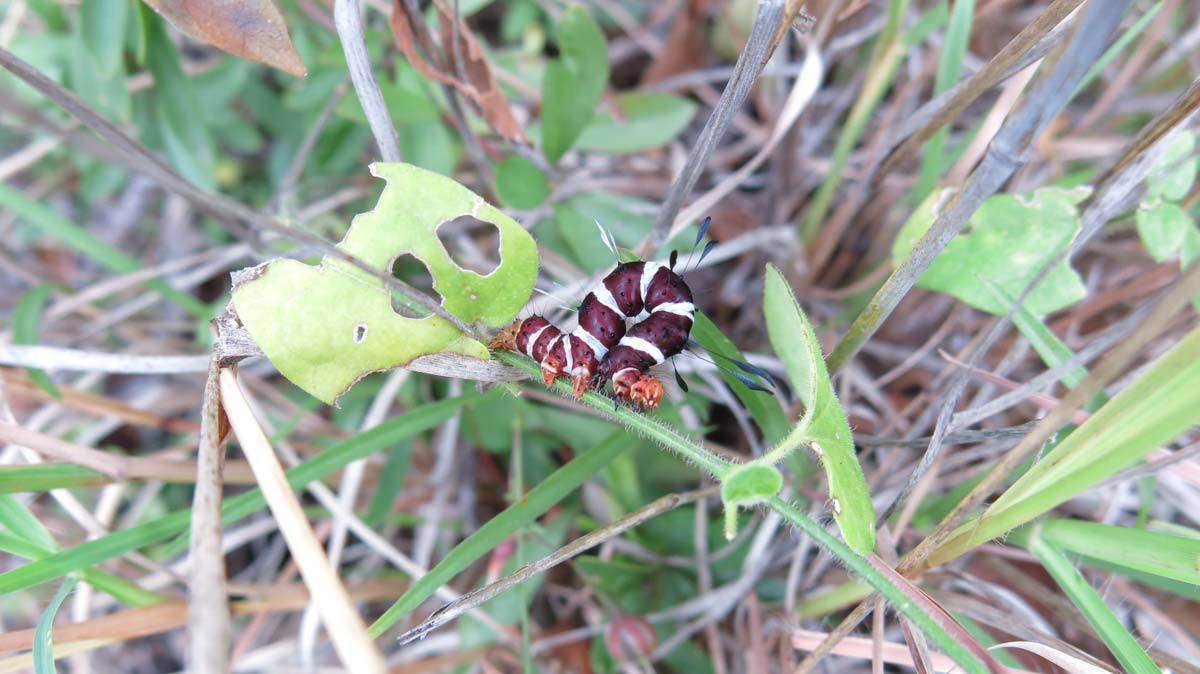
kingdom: Animalia
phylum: Arthropoda
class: Insecta
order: Lepidoptera
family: Erebidae
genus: Rhanidophora
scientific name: Rhanidophora cinctigutta
